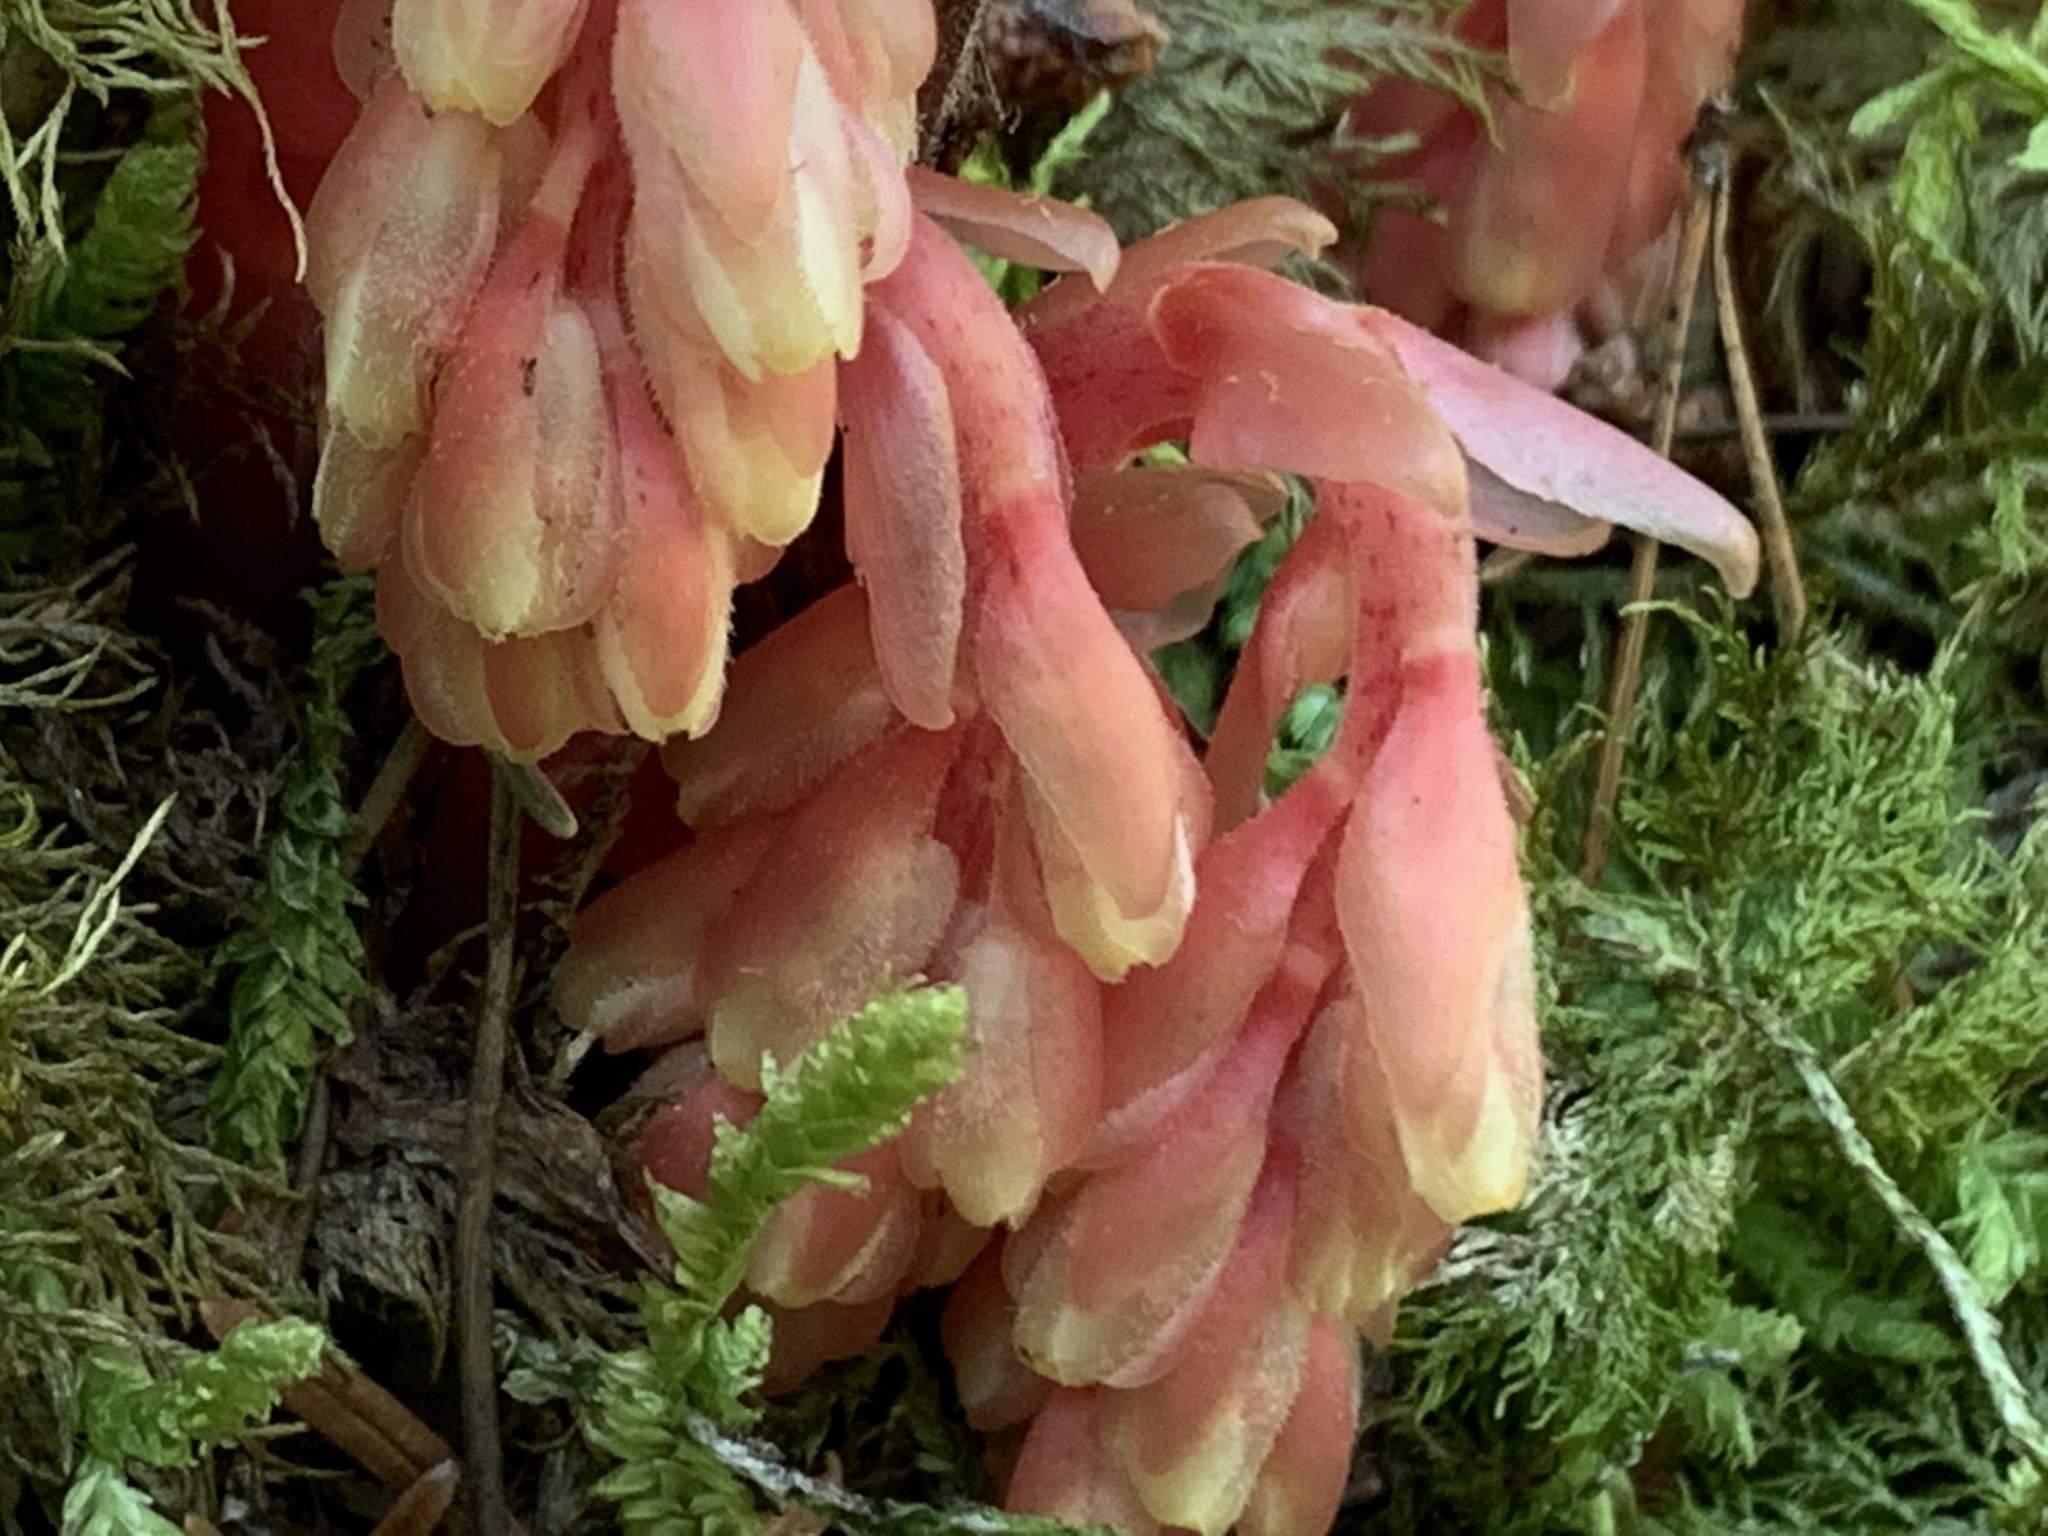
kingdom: Plantae
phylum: Tracheophyta
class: Magnoliopsida
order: Ericales
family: Ericaceae
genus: Hypopitys
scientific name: Hypopitys monotropa
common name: Yellow bird's-nest
